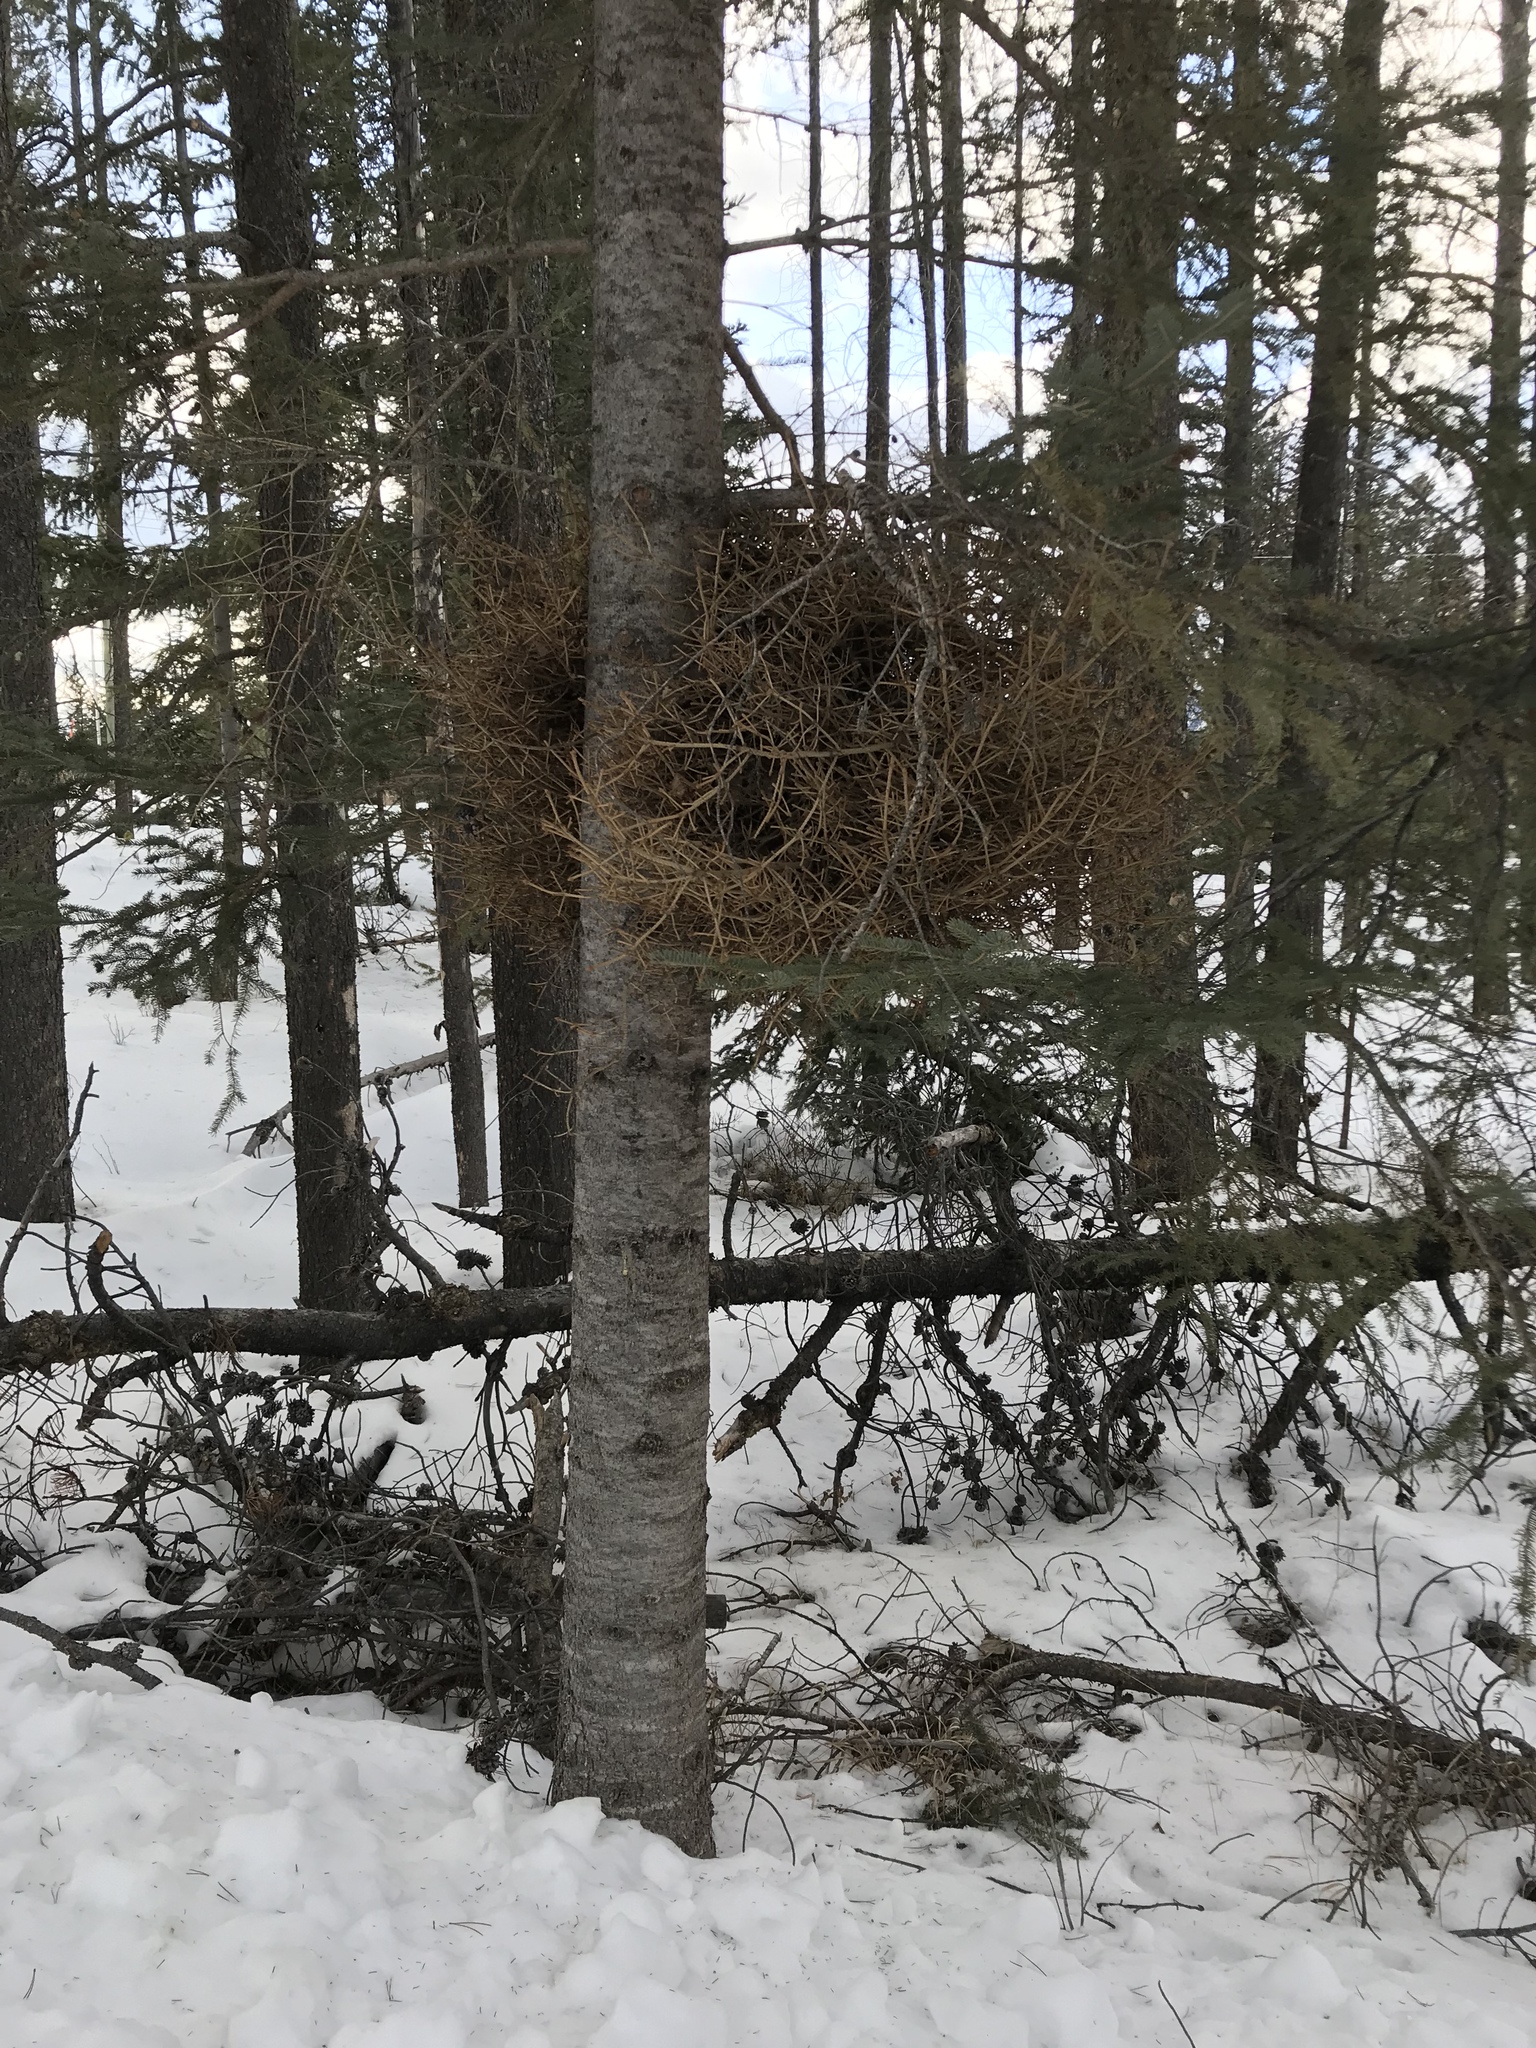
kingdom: Fungi
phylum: Basidiomycota
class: Pucciniomycetes
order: Pucciniales
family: Coleosporiaceae
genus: Chrysomyxa
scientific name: Chrysomyxa arctostaphyli
